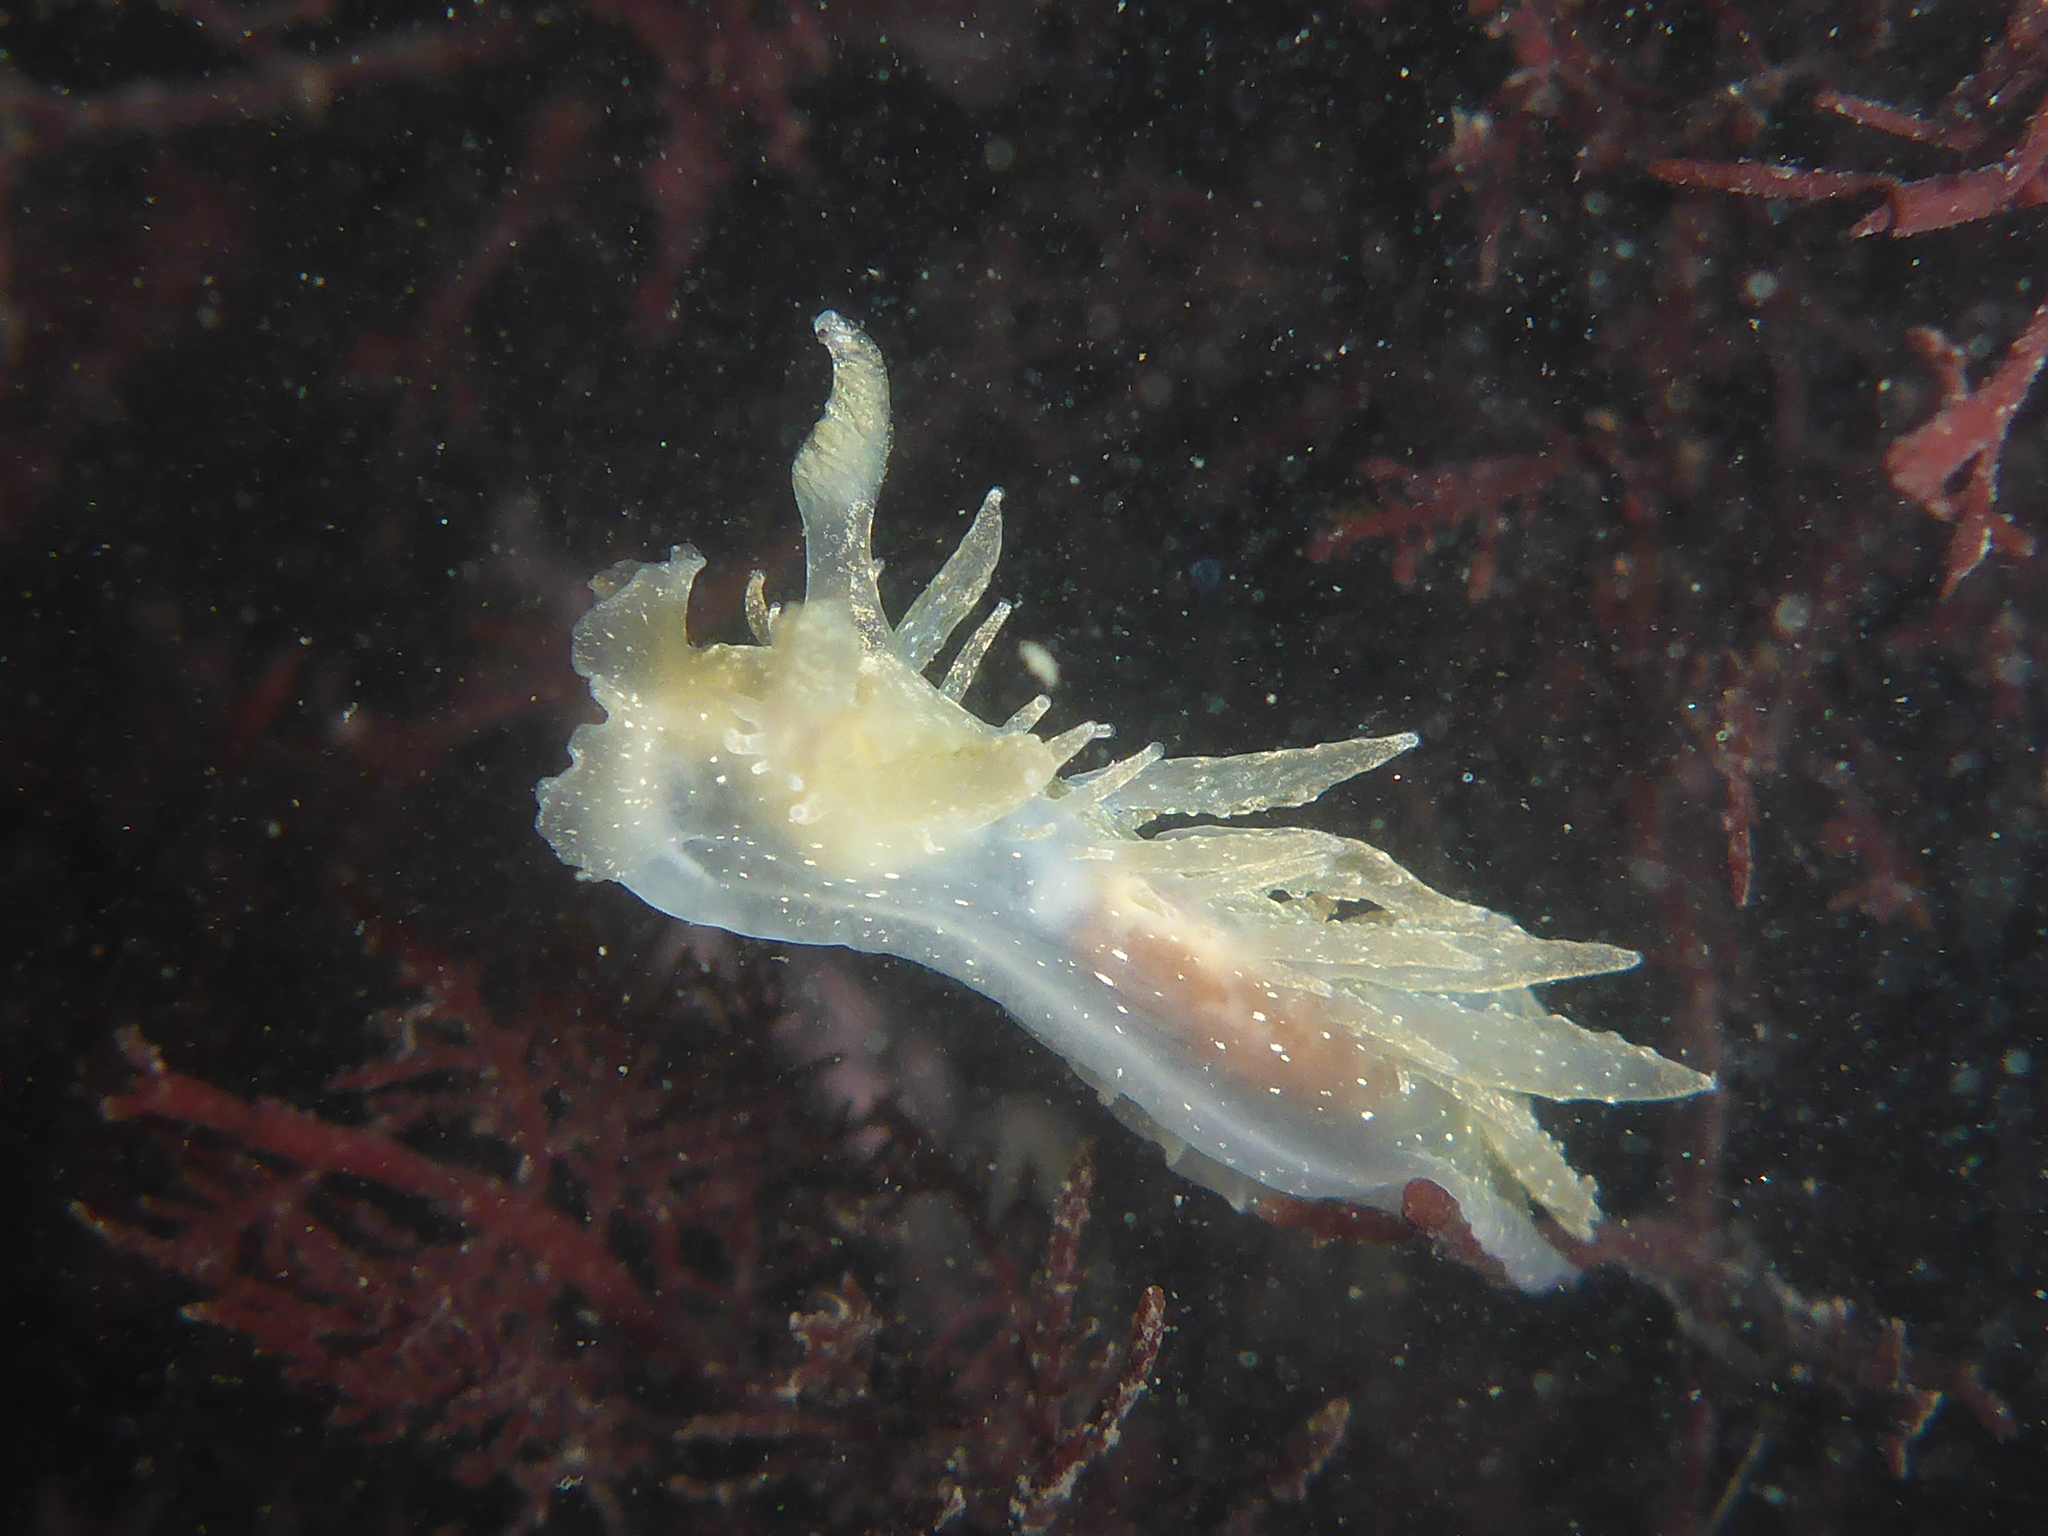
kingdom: Animalia
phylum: Mollusca
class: Gastropoda
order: Nudibranchia
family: Dironidae
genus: Dirona
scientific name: Dirona picta
